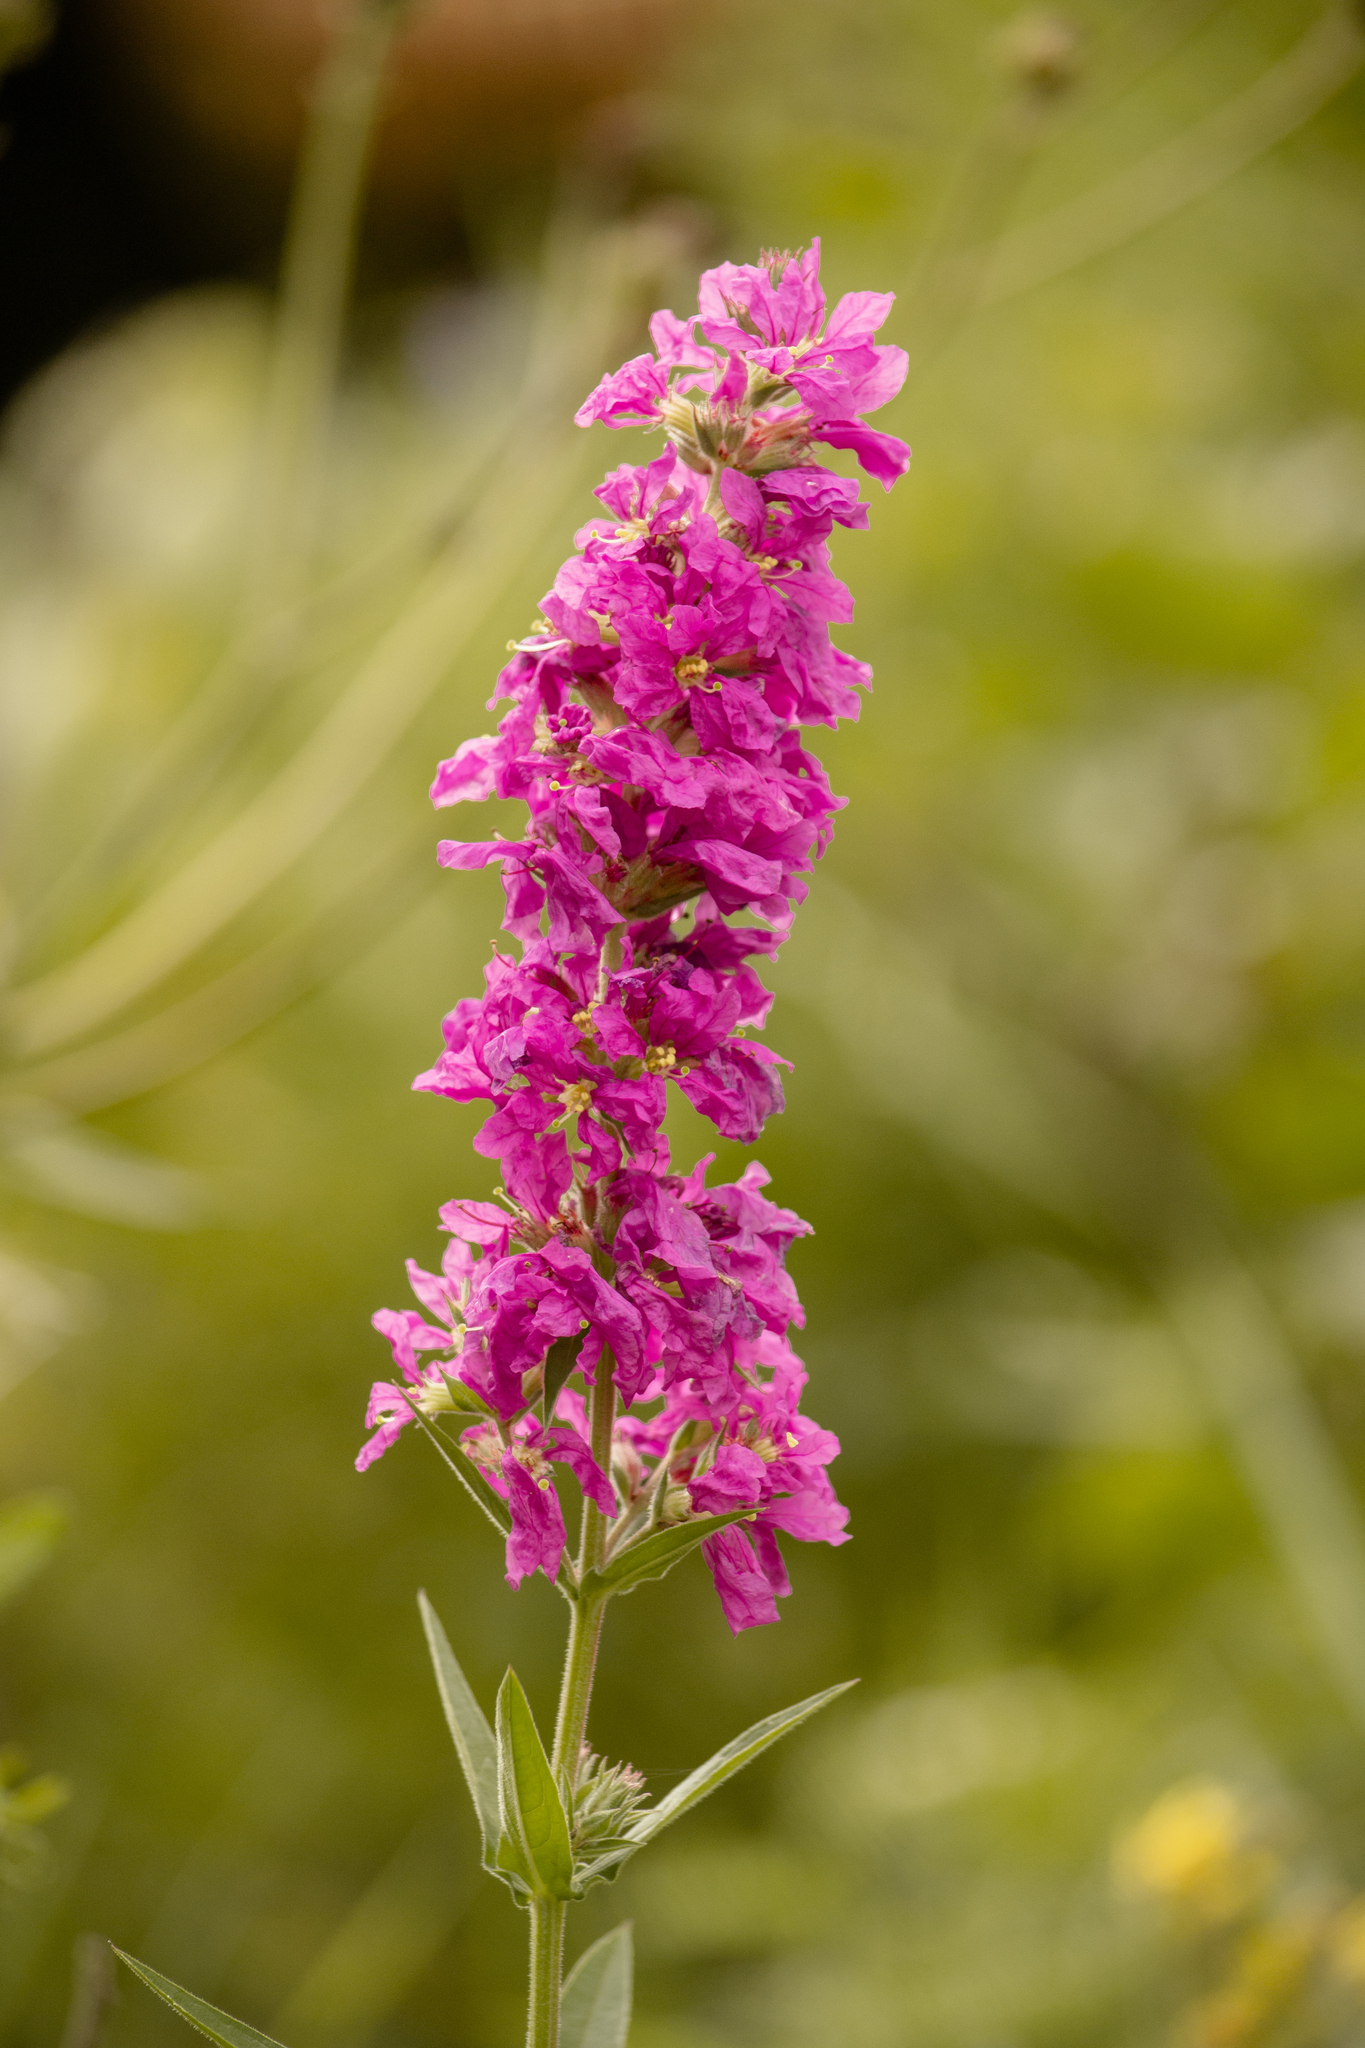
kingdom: Plantae
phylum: Tracheophyta
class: Magnoliopsida
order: Myrtales
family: Lythraceae
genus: Lythrum
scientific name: Lythrum salicaria
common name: Purple loosestrife
